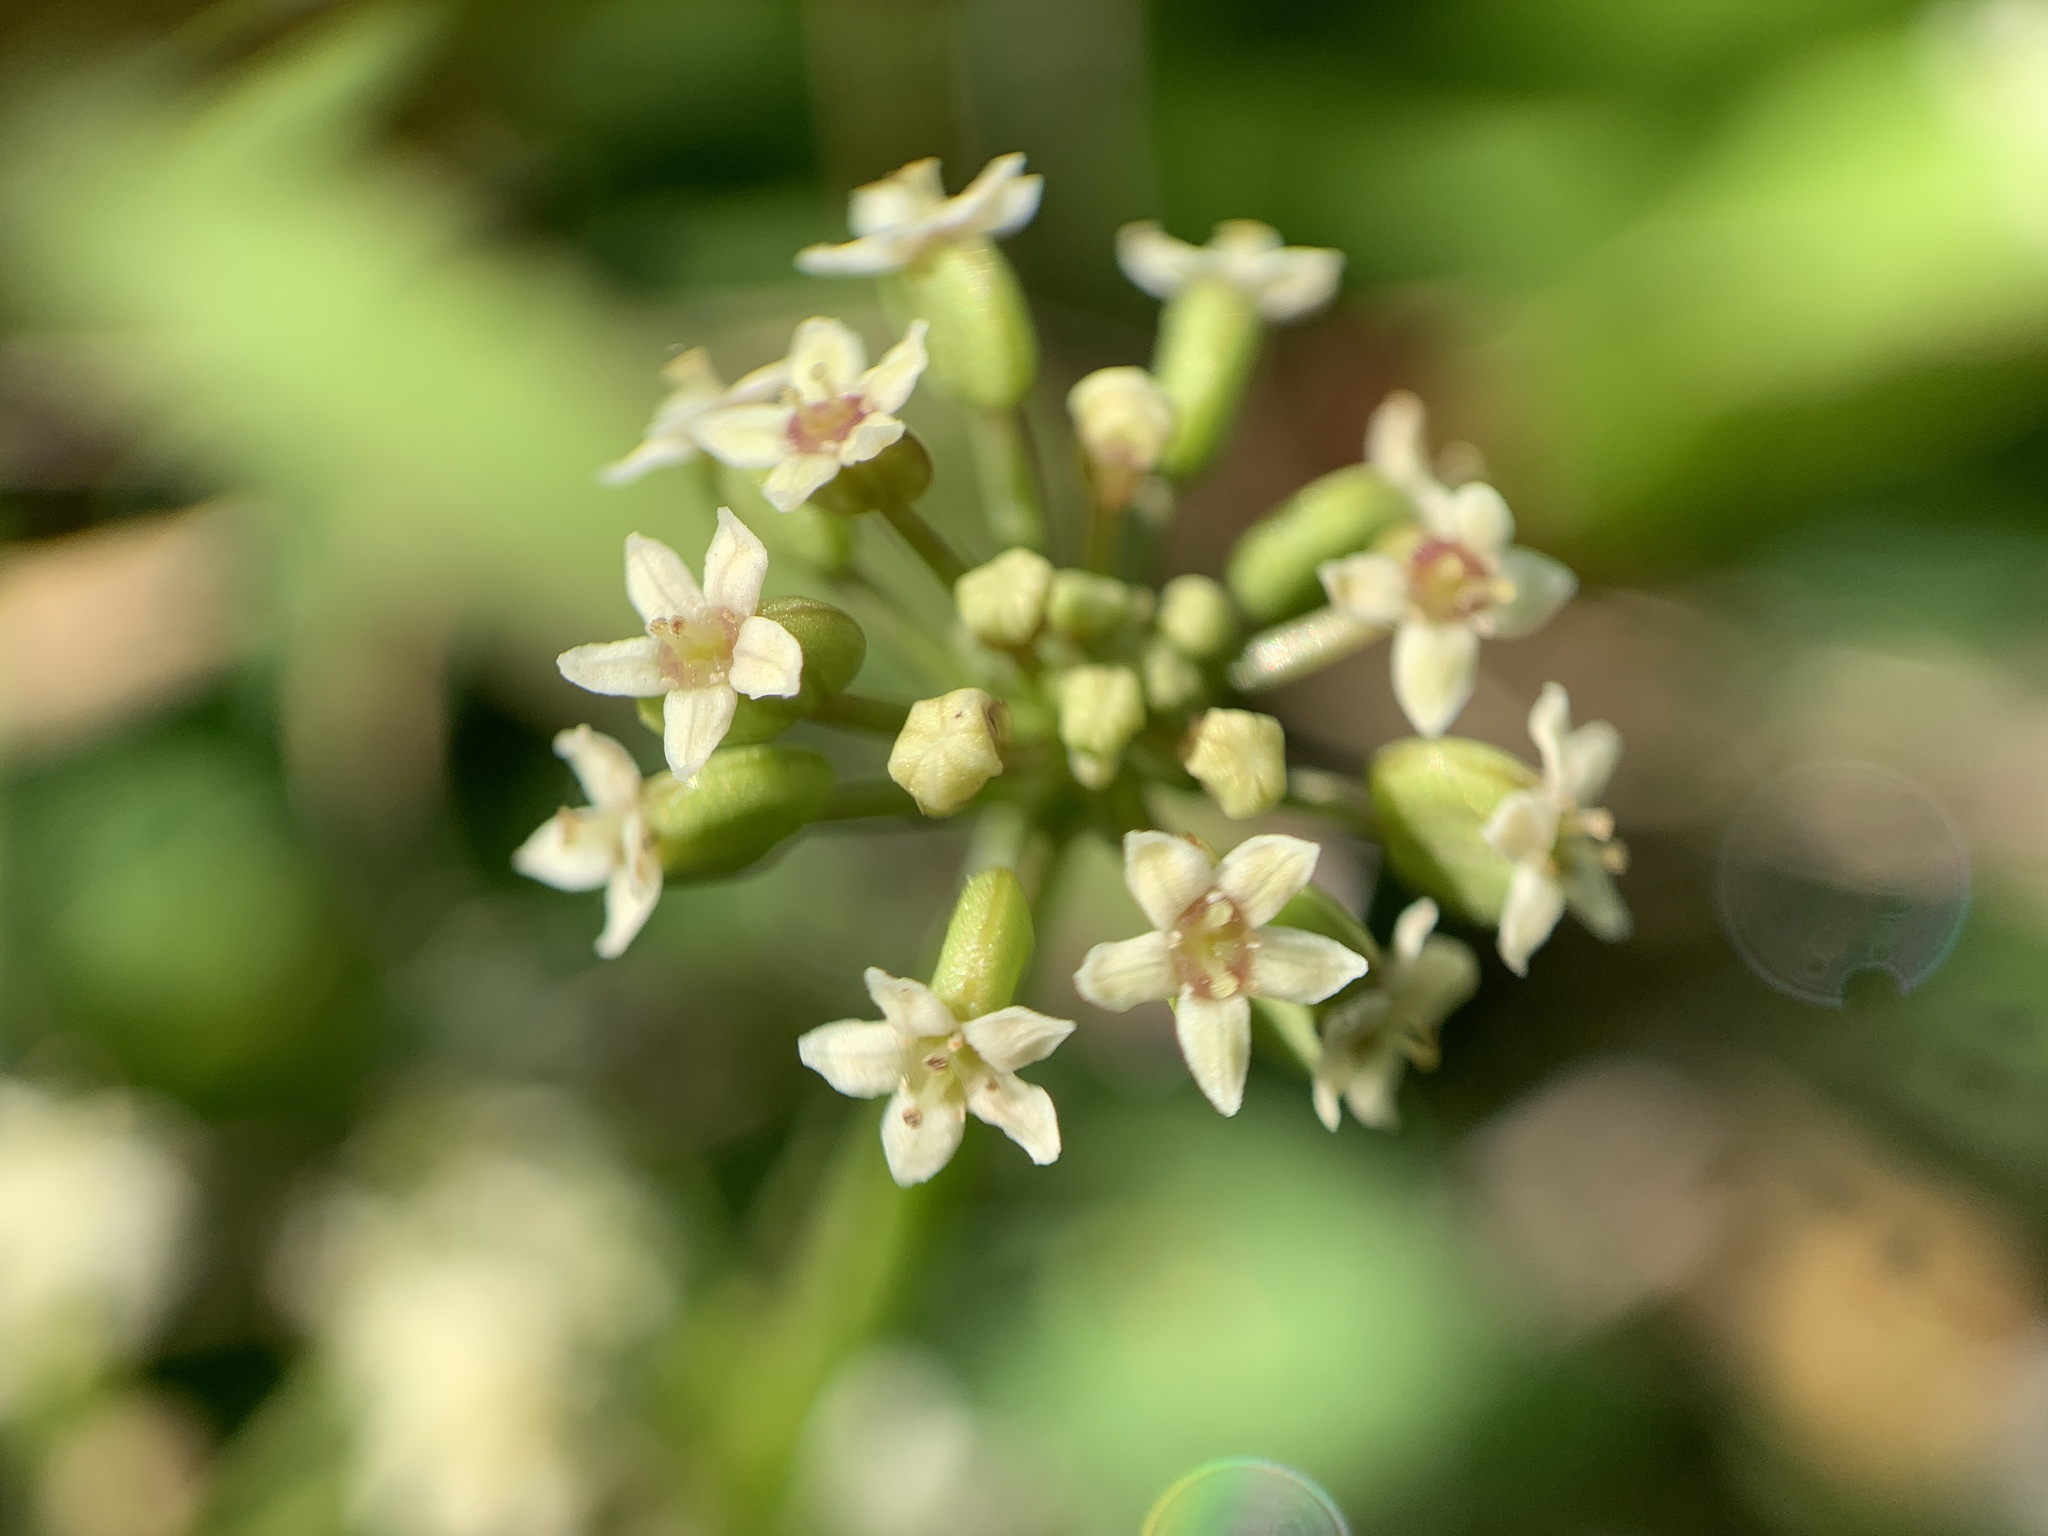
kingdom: Plantae
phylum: Tracheophyta
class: Magnoliopsida
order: Apiales
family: Araliaceae
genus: Hydrocotyle
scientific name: Hydrocotyle umbellata
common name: Water pennywort
